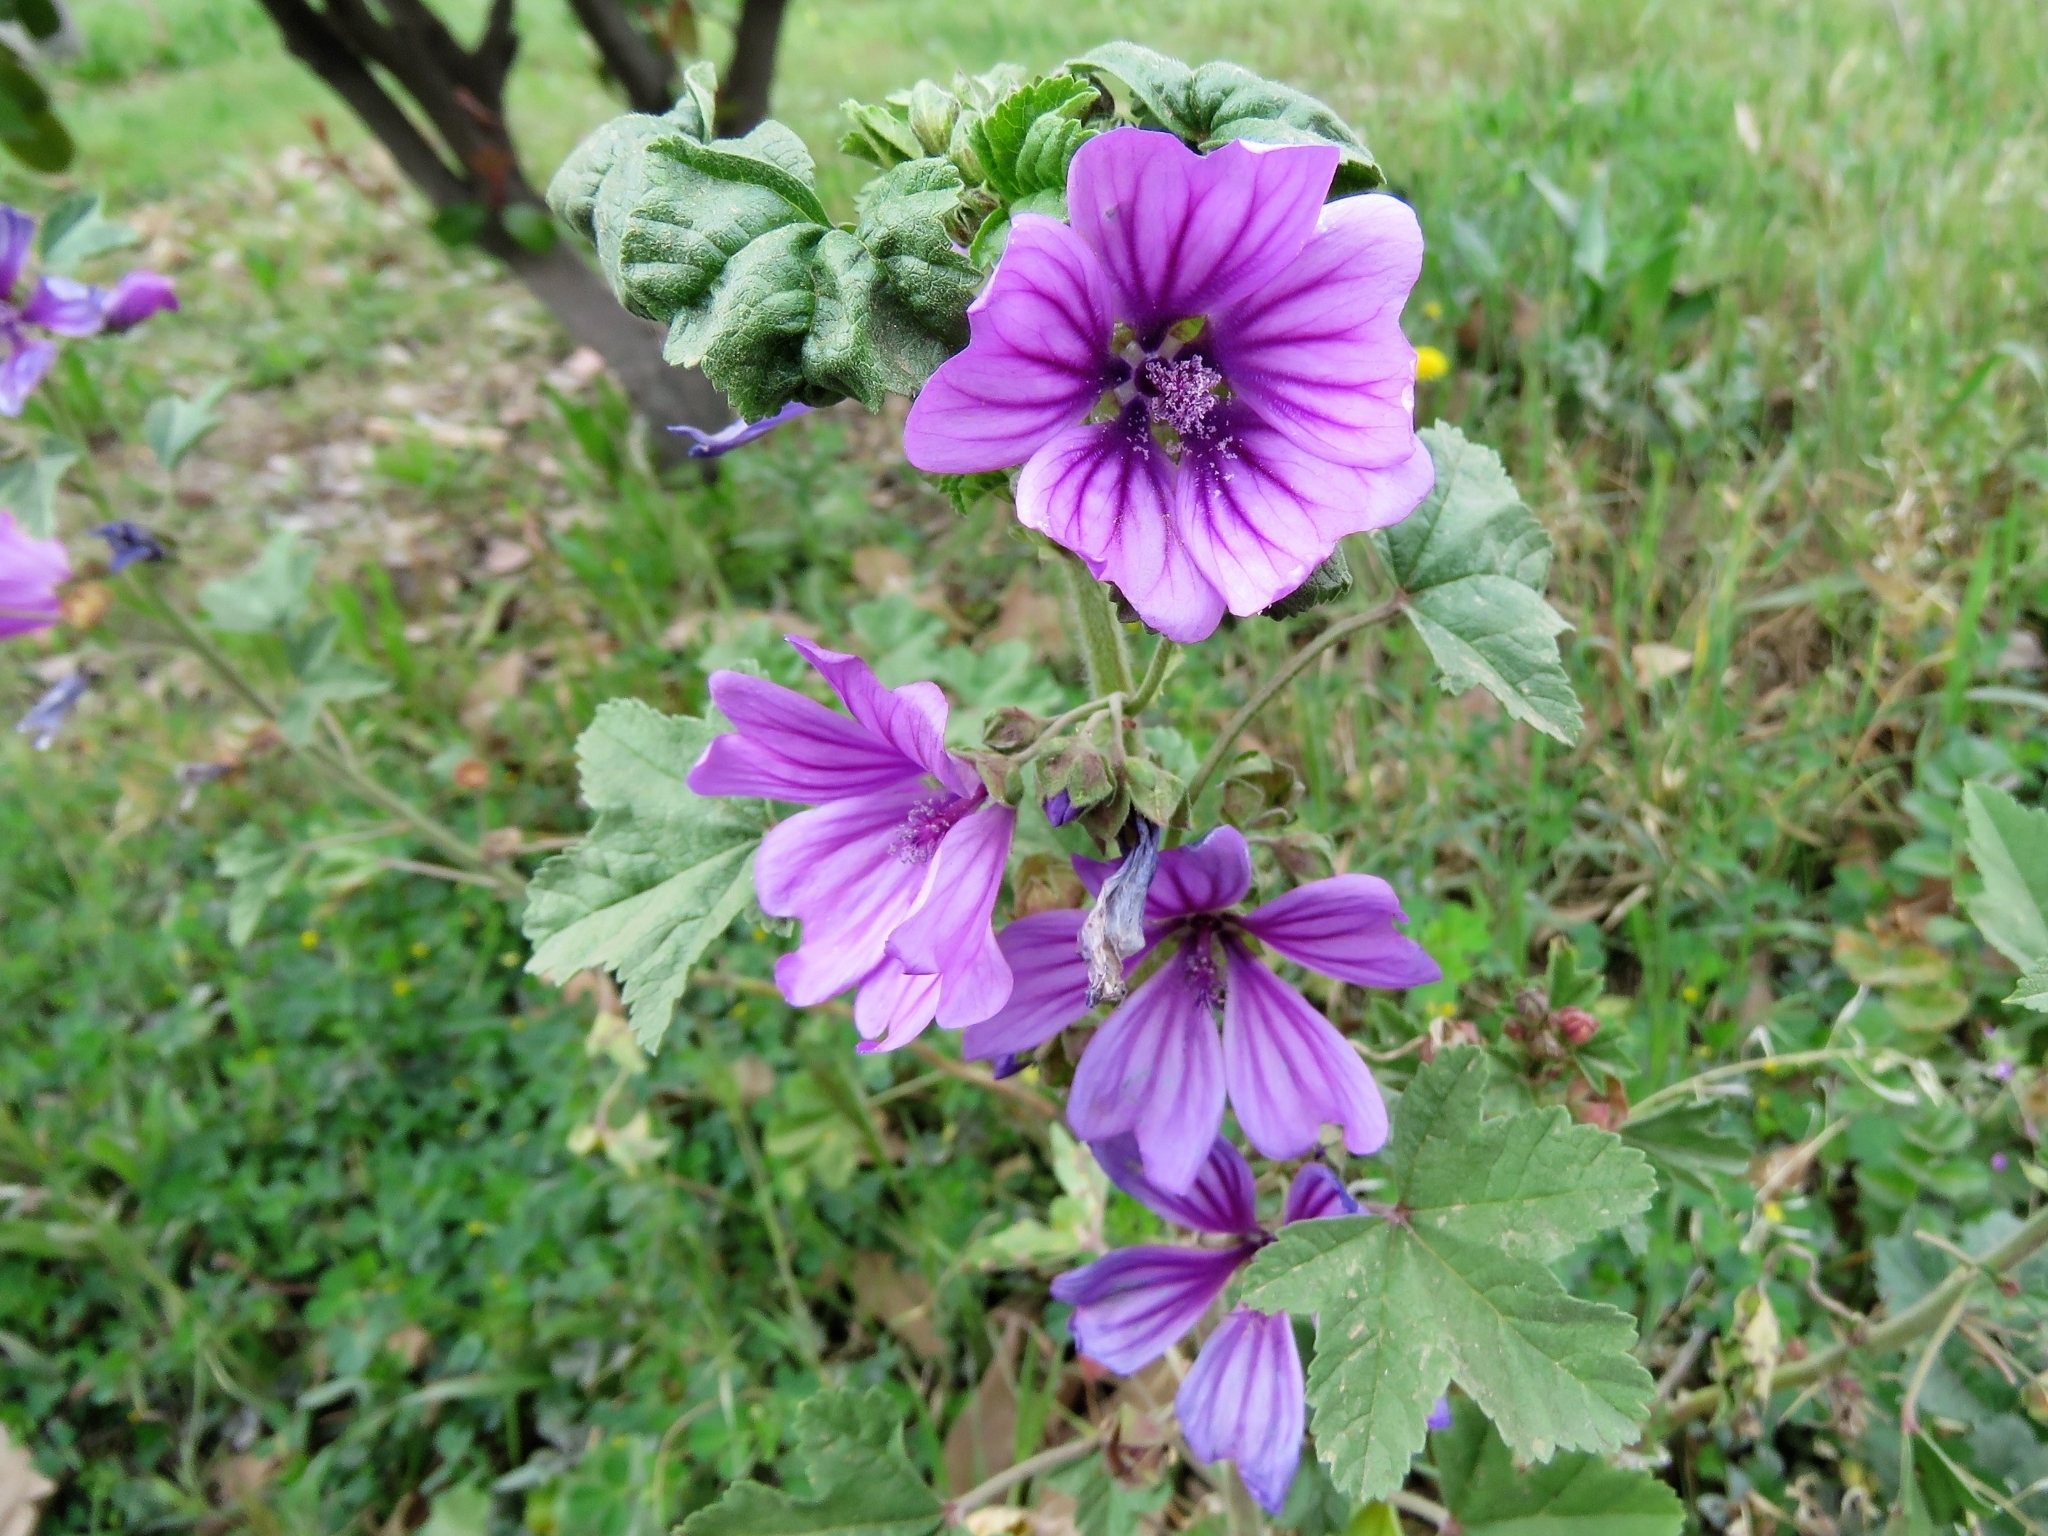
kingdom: Plantae
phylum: Tracheophyta
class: Magnoliopsida
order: Malvales
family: Malvaceae
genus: Malva
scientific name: Malva sylvestris
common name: Common mallow
